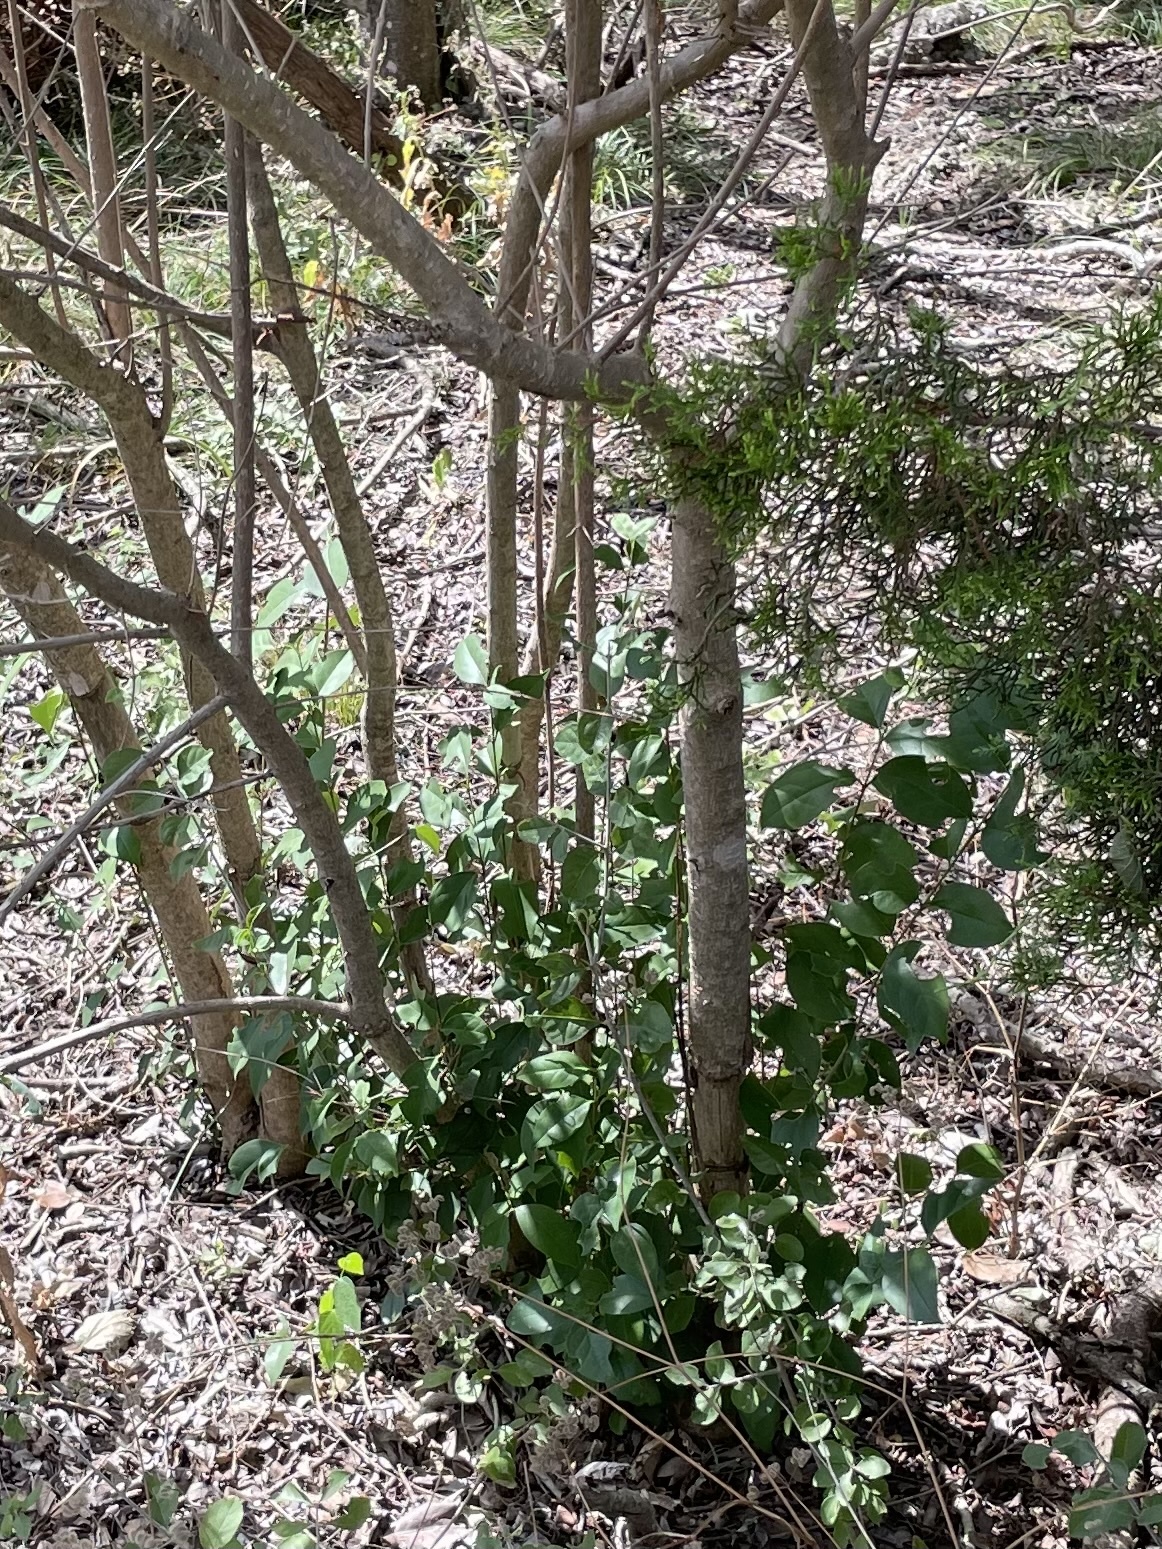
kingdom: Plantae
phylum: Tracheophyta
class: Magnoliopsida
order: Lamiales
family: Oleaceae
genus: Ligustrum
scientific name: Ligustrum lucidum
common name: Glossy privet
